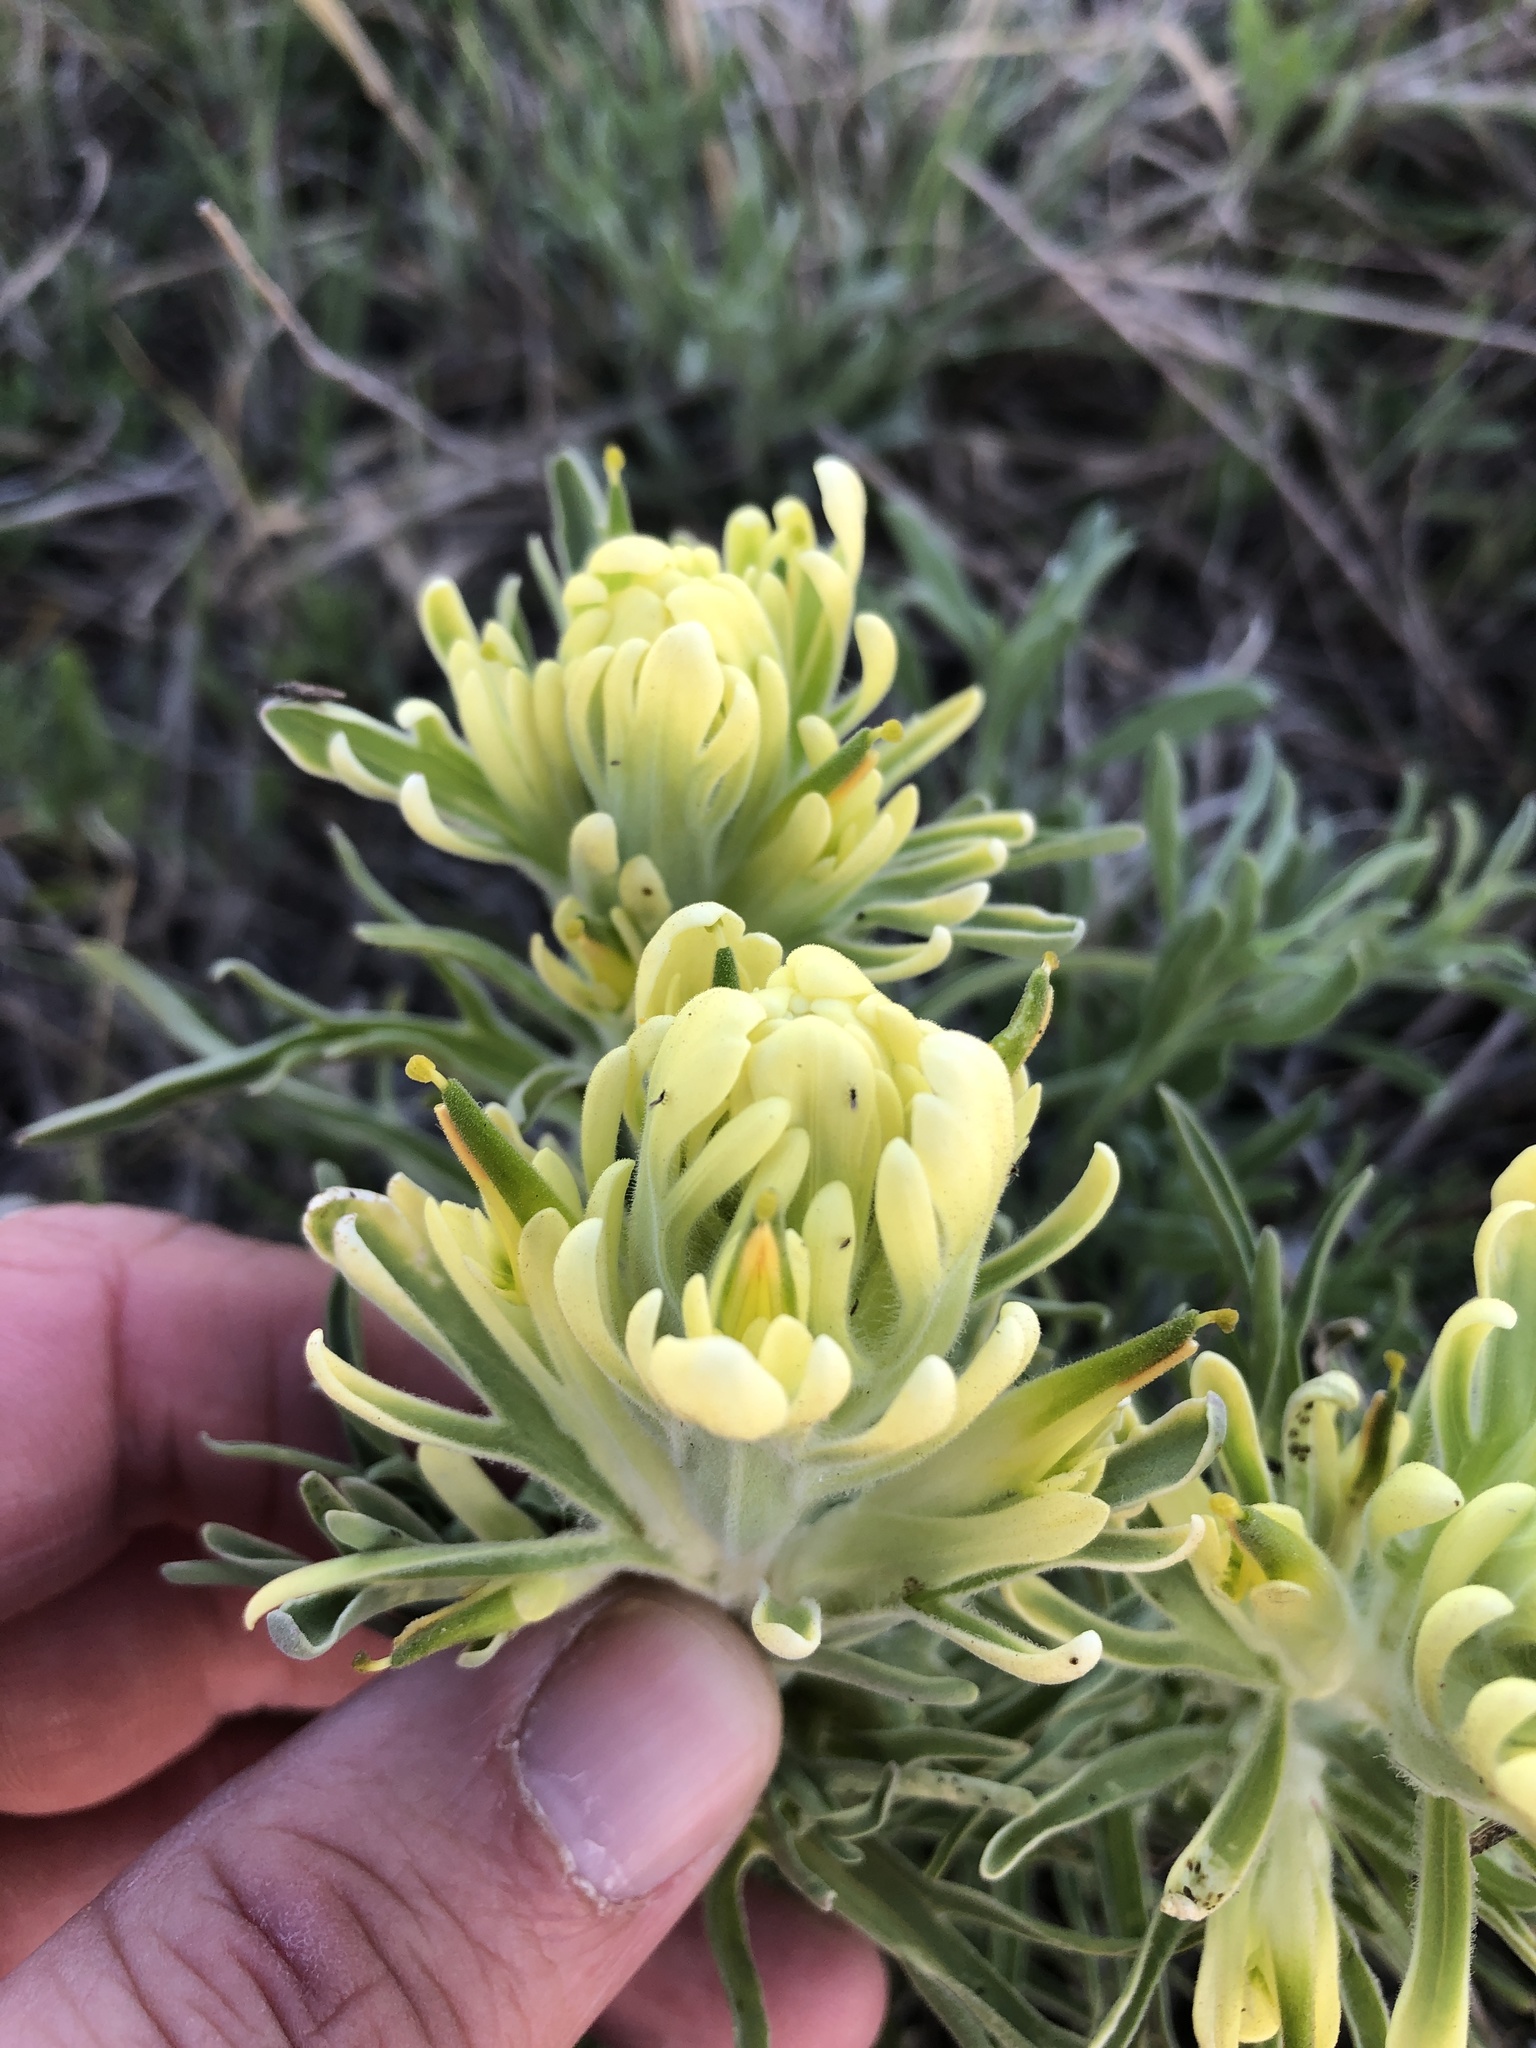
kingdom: Plantae
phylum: Tracheophyta
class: Magnoliopsida
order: Lamiales
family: Orobanchaceae
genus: Castilleja
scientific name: Castilleja citrina
